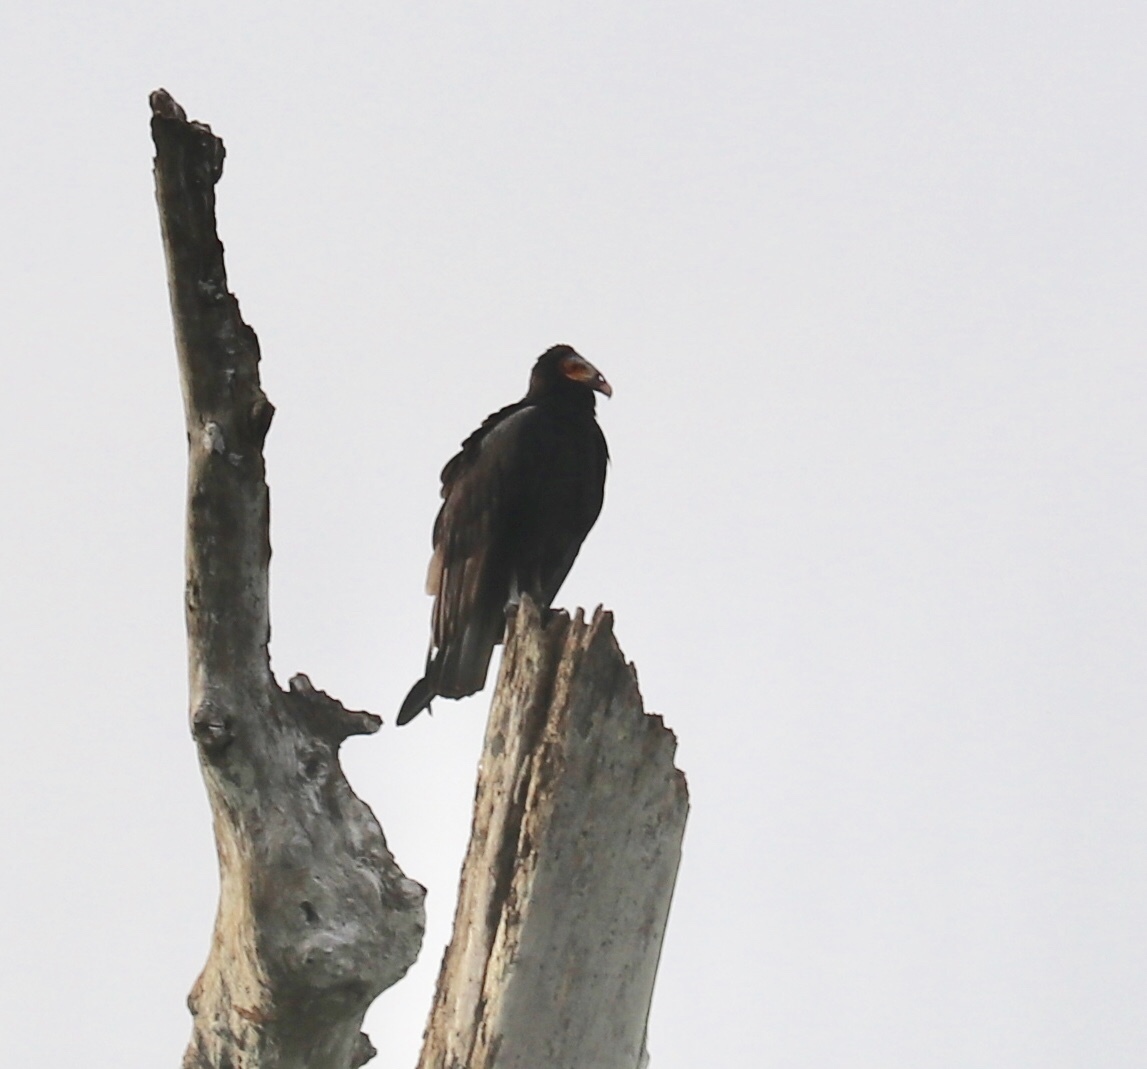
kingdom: Animalia
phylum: Chordata
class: Aves
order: Accipitriformes
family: Cathartidae
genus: Cathartes
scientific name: Cathartes burrovianus
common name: Lesser yellow-headed vulture
